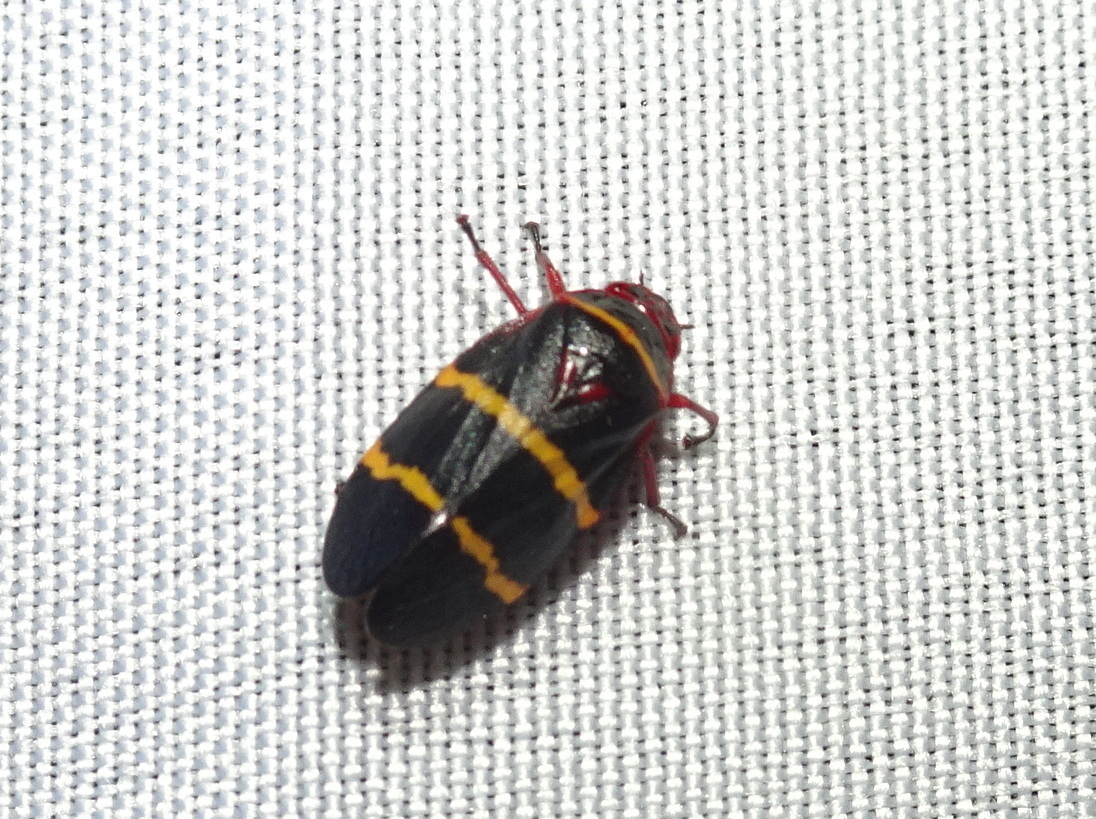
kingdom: Animalia
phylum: Arthropoda
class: Insecta
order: Hemiptera
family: Cercopidae
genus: Prosapia
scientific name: Prosapia bicincta
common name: Twolined spittlebug
